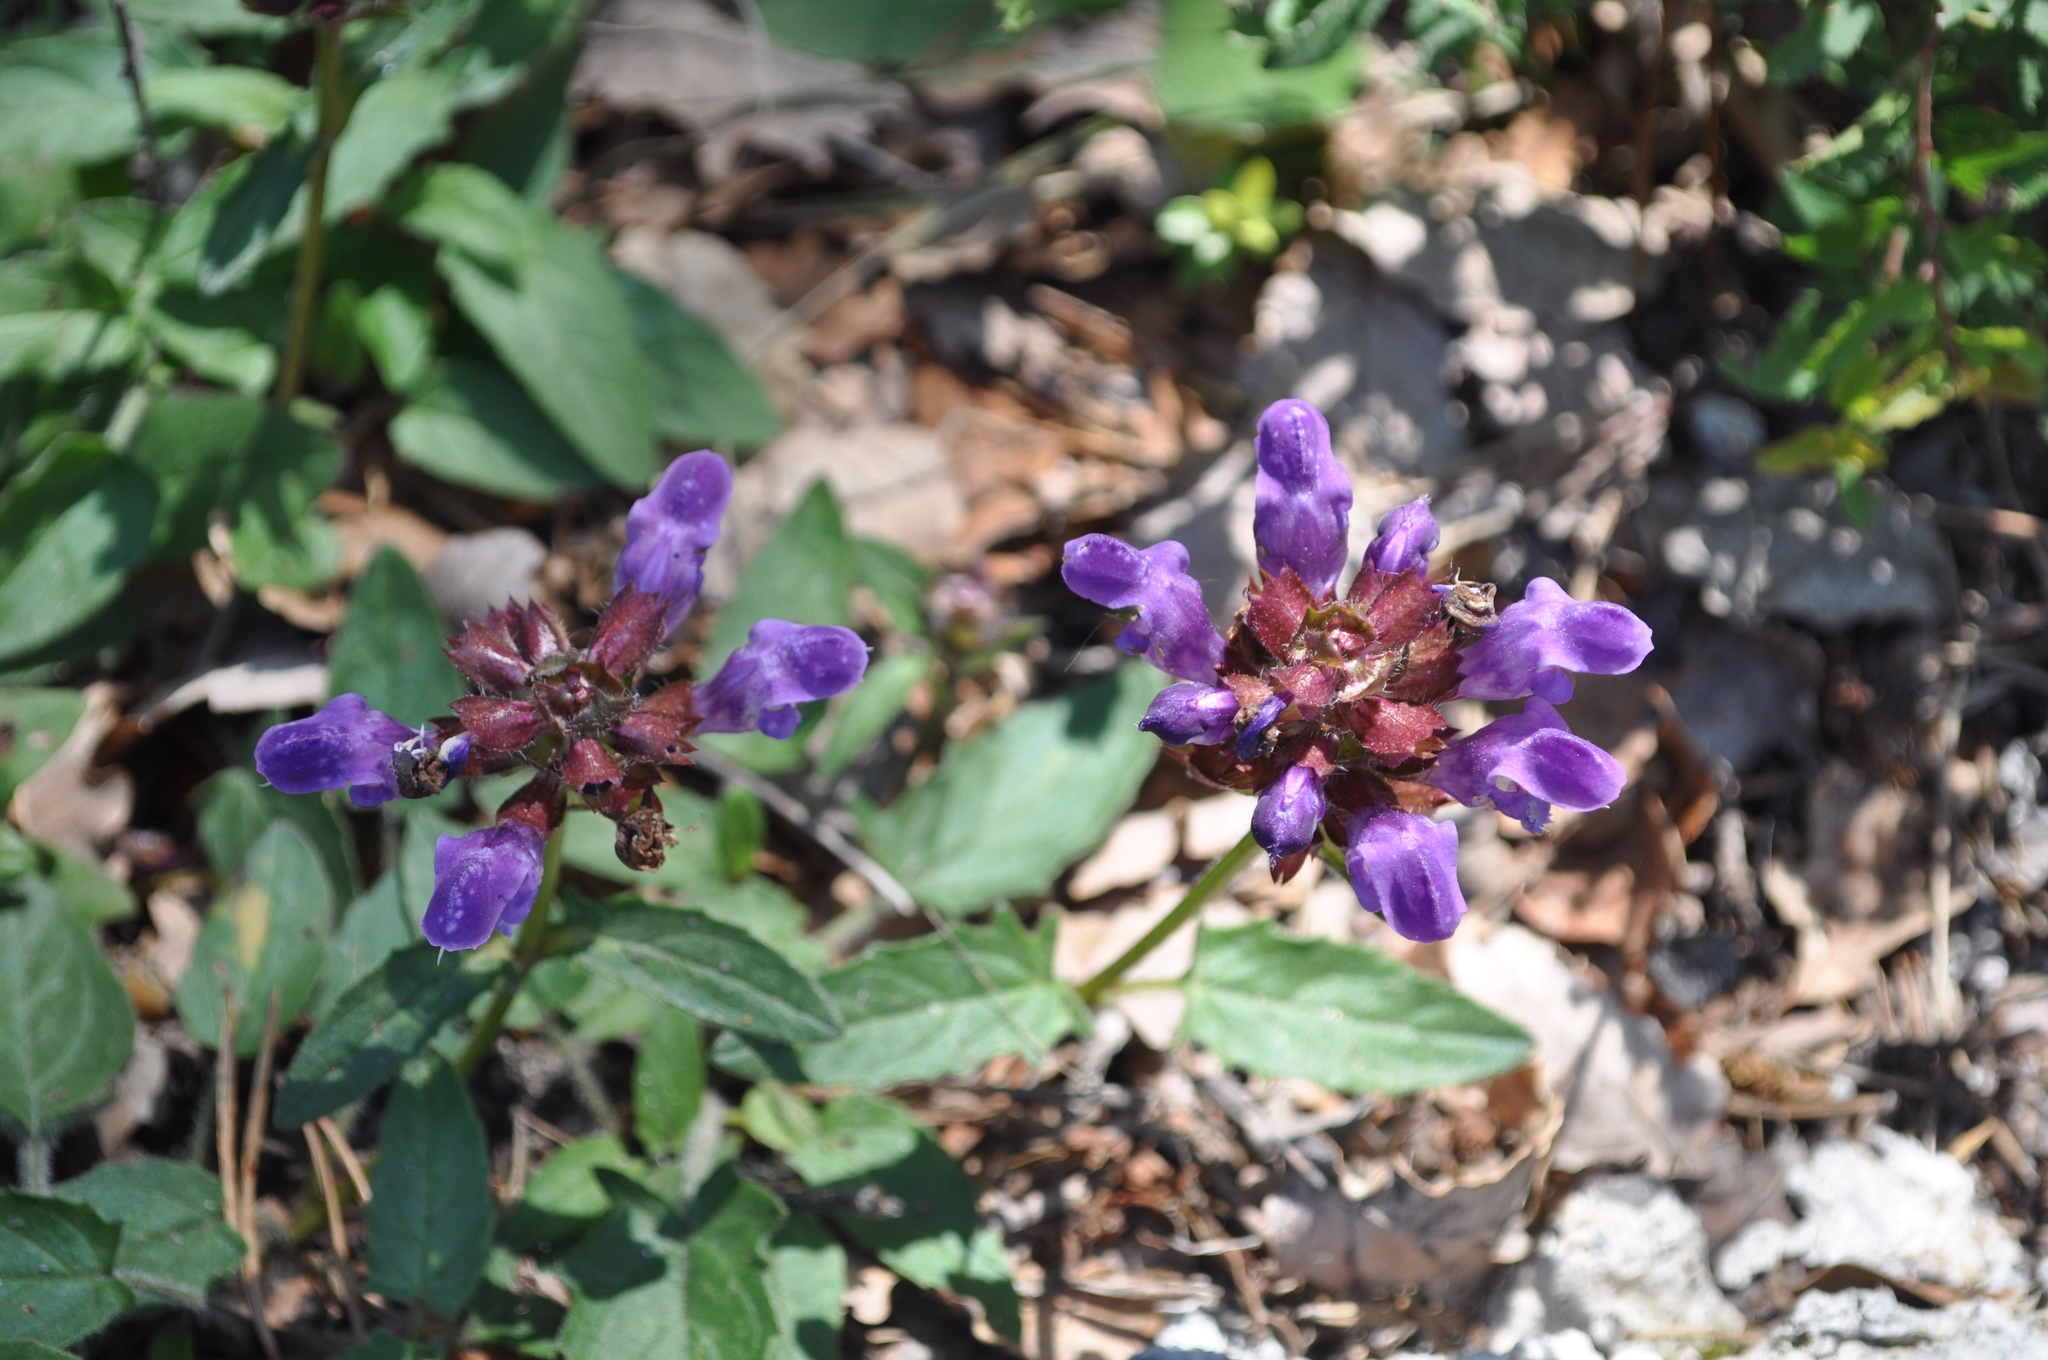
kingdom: Plantae
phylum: Tracheophyta
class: Magnoliopsida
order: Lamiales
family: Lamiaceae
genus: Prunella
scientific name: Prunella grandiflora
